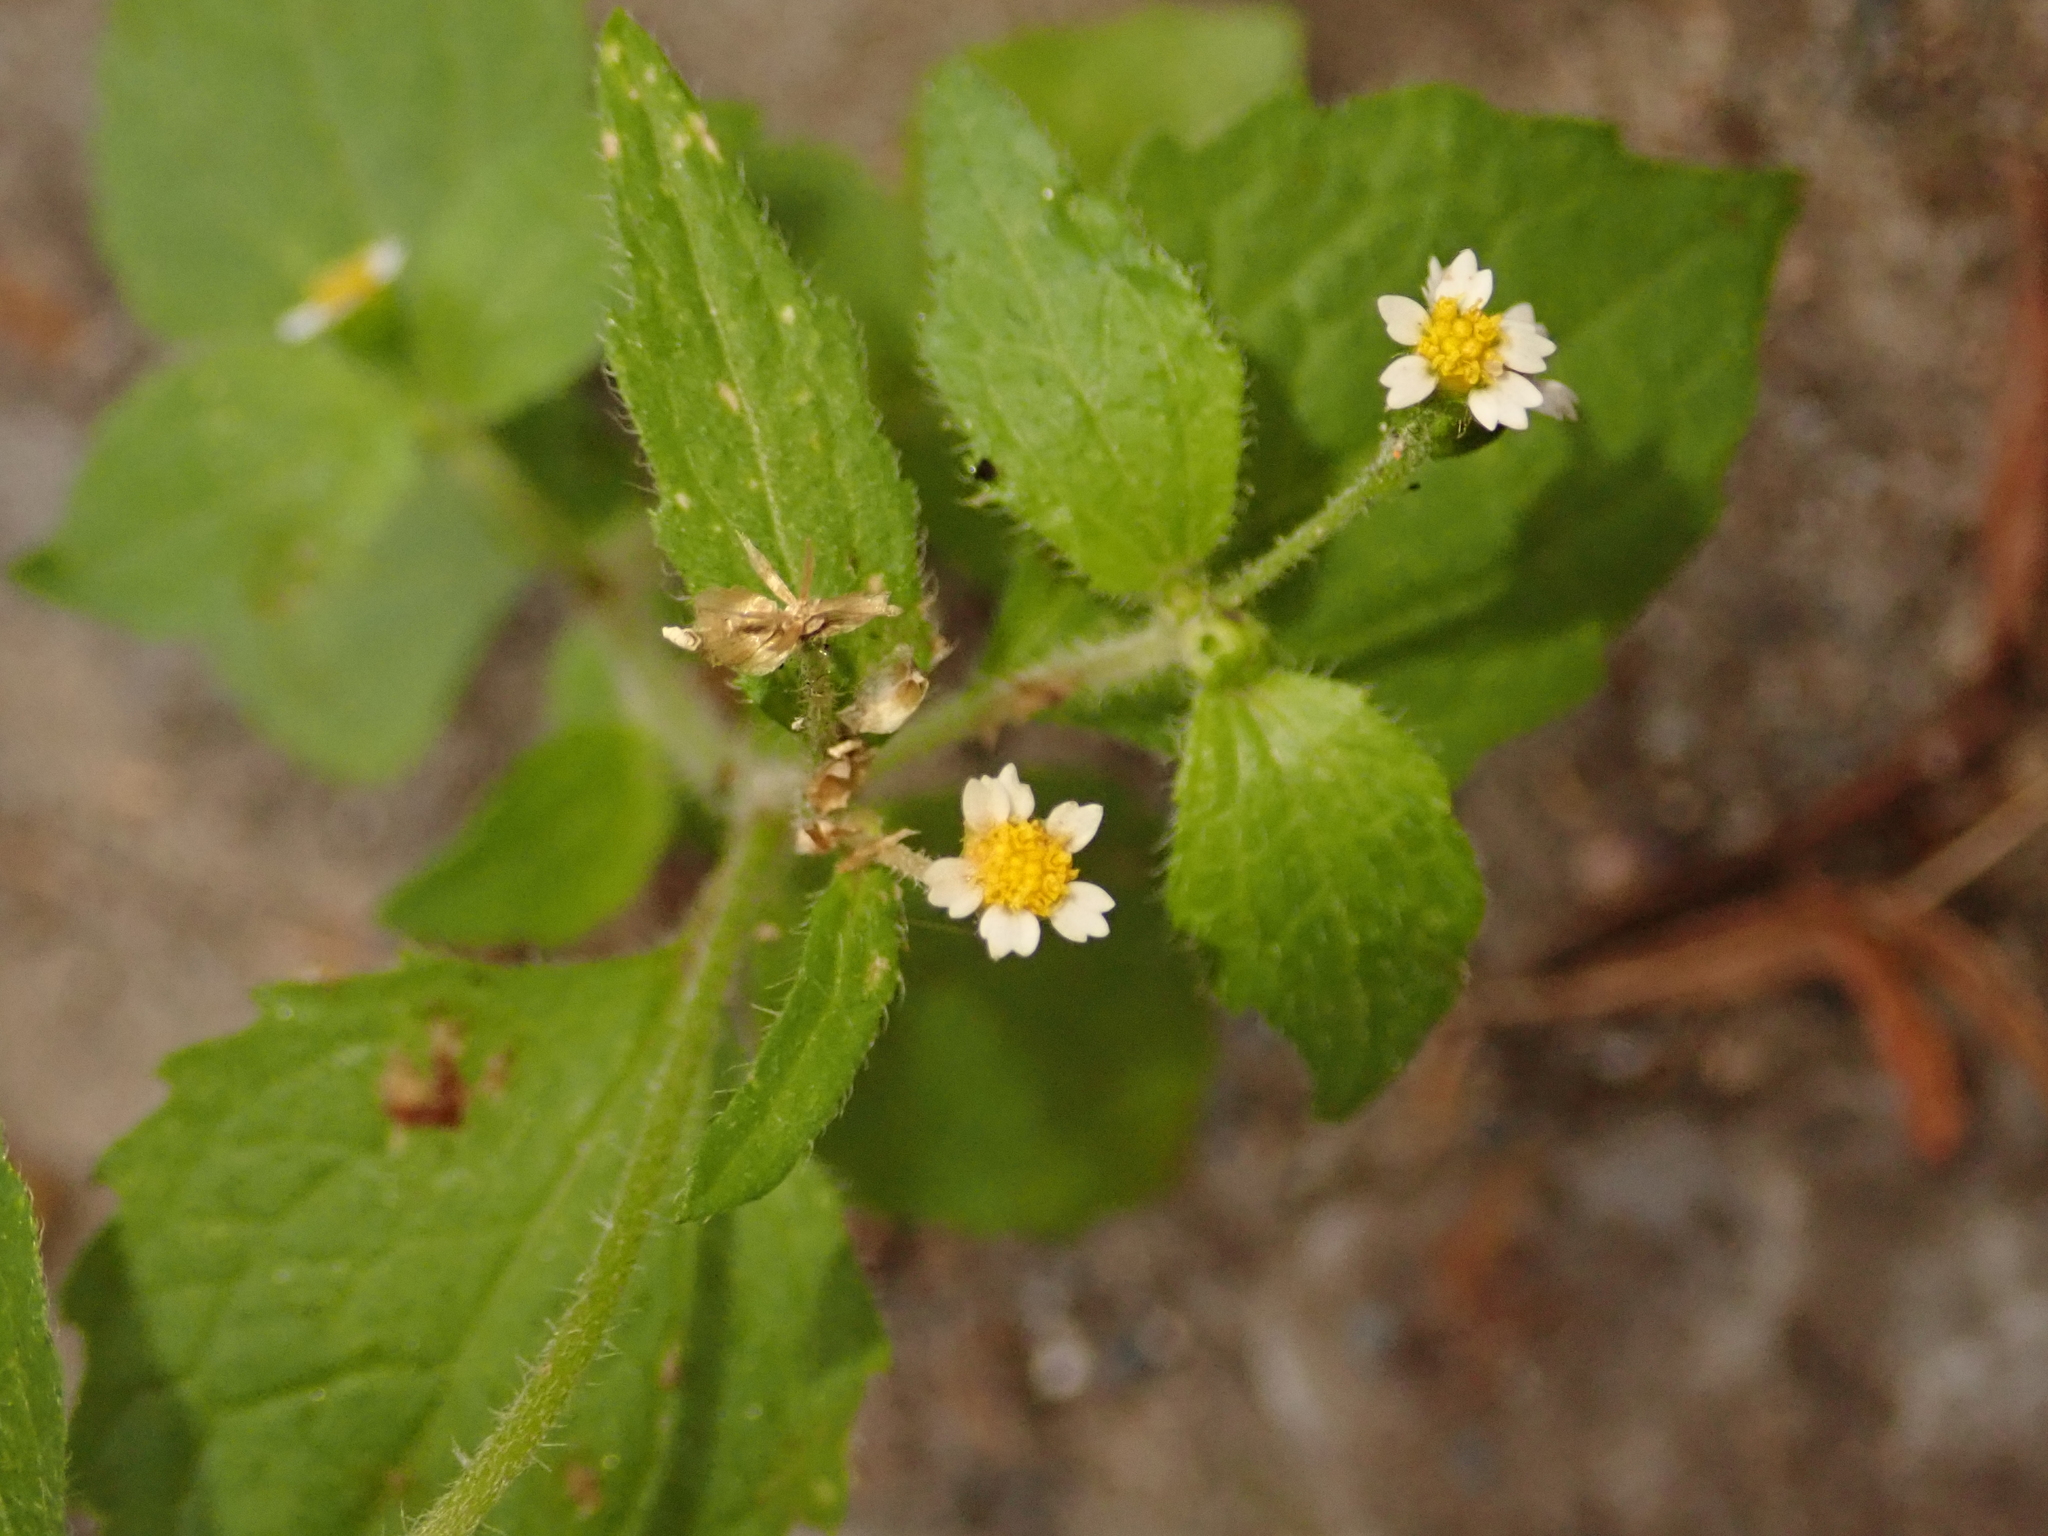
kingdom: Plantae
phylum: Tracheophyta
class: Magnoliopsida
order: Asterales
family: Asteraceae
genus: Galinsoga
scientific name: Galinsoga quadriradiata
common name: Shaggy soldier
